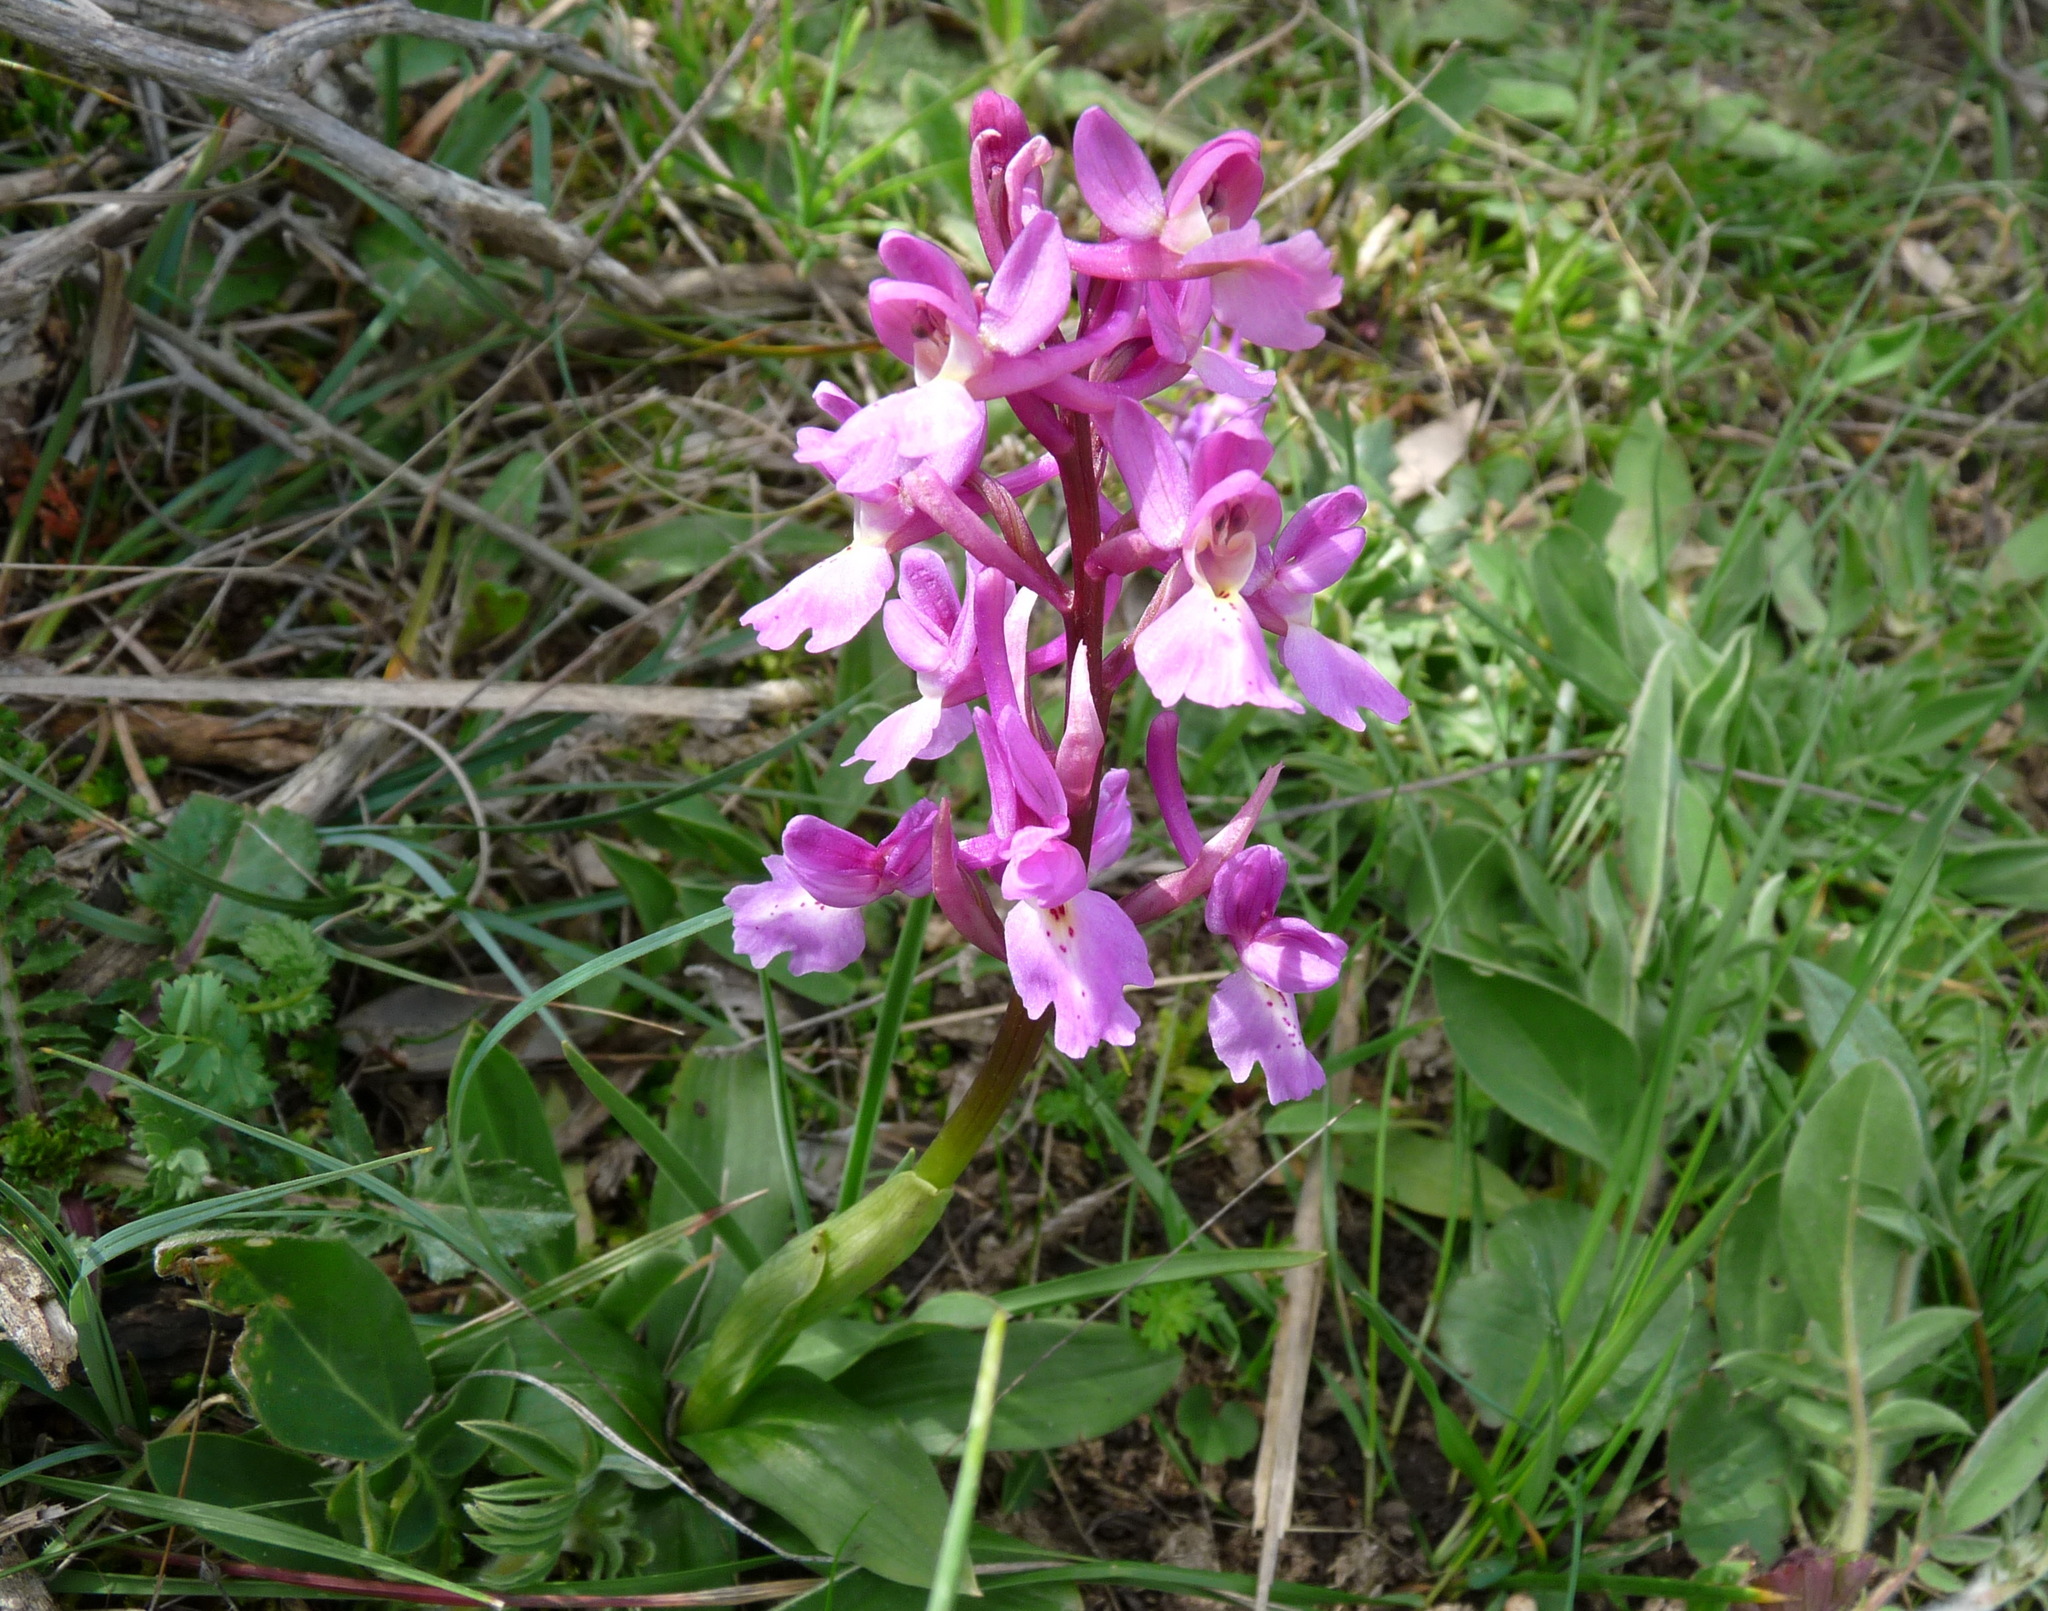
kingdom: Plantae
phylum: Tracheophyta
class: Liliopsida
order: Asparagales
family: Orchidaceae
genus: Orchis
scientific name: Orchis laeta
